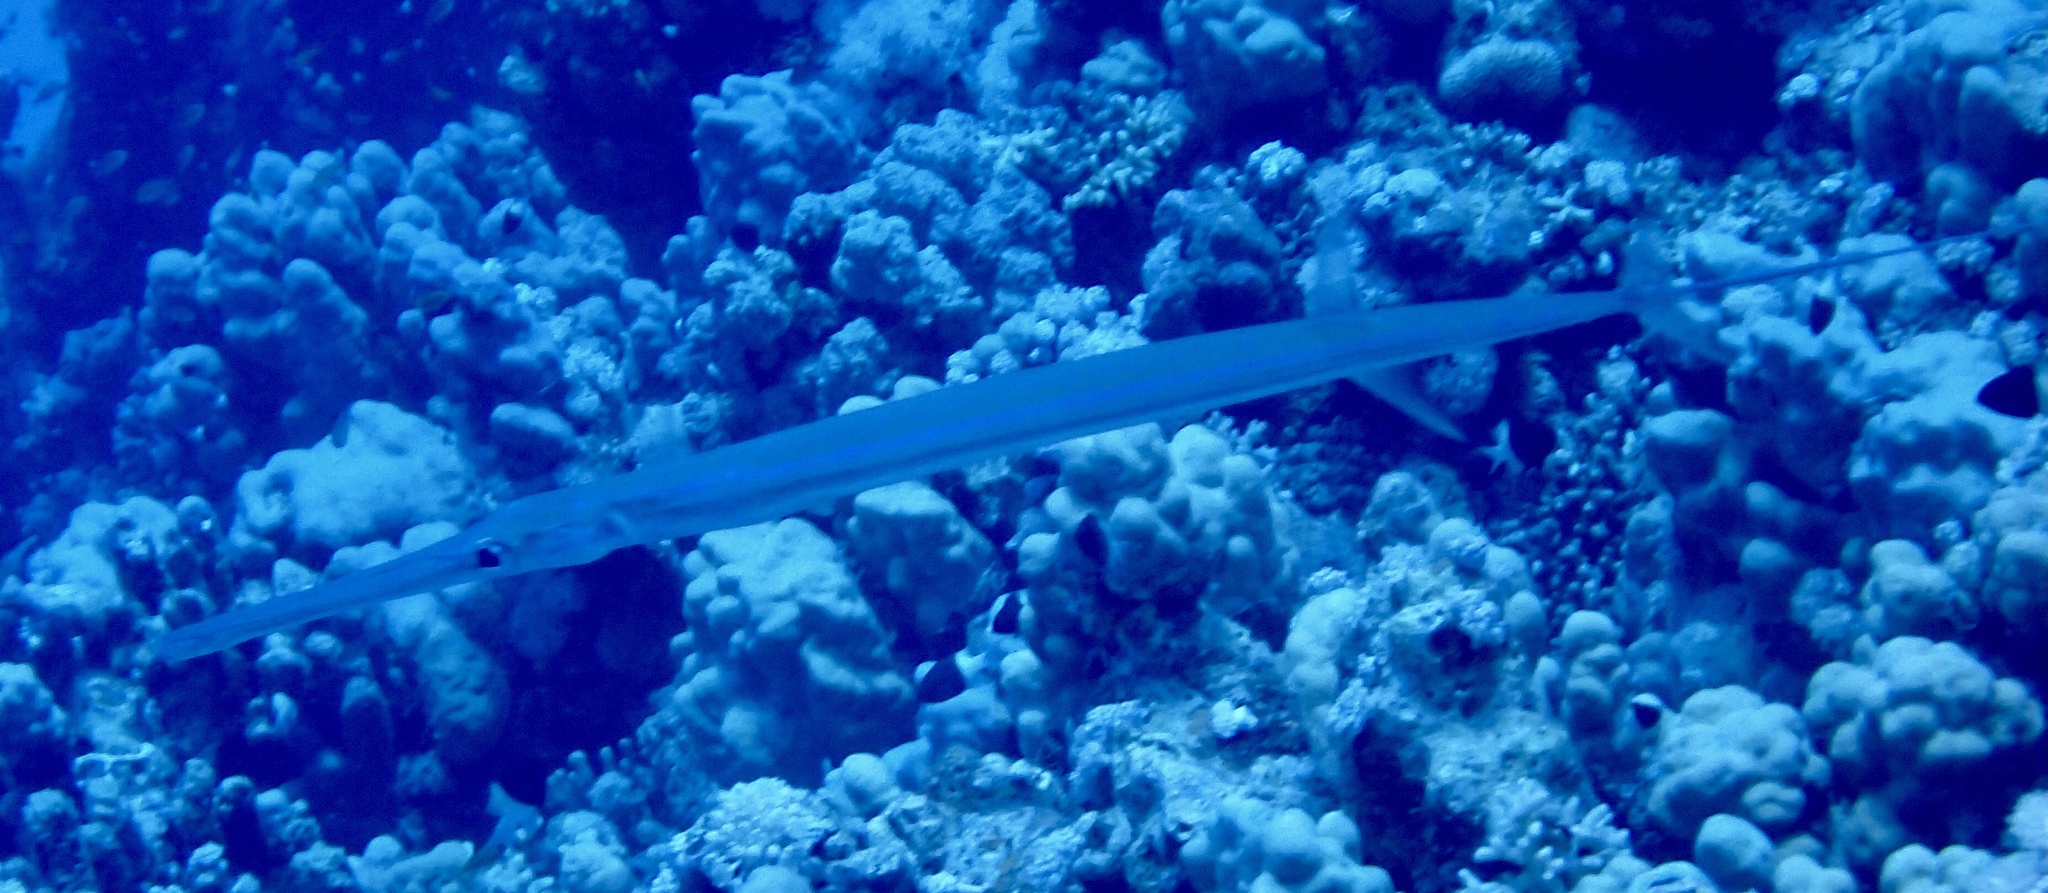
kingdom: Animalia
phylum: Chordata
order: Syngnathiformes
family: Fistulariidae
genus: Fistularia
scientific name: Fistularia commersonii
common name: Bluespotted cornetfish
